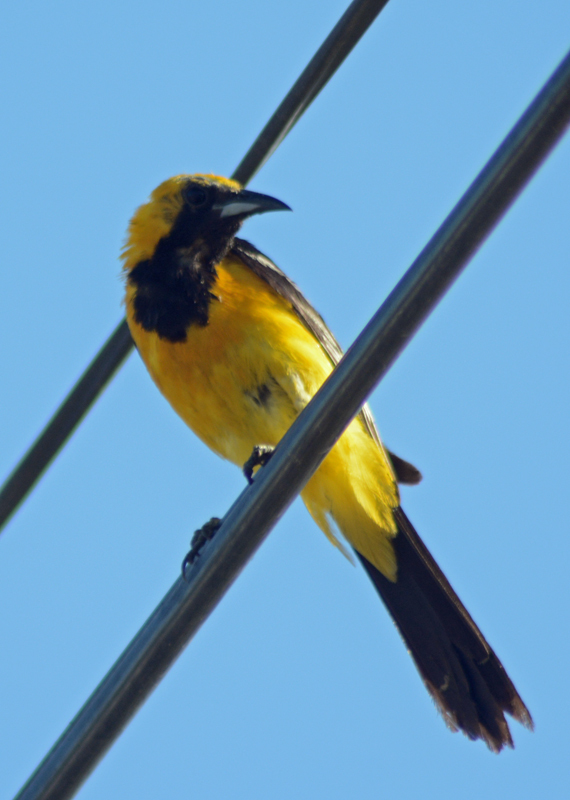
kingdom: Animalia
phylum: Chordata
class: Aves
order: Passeriformes
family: Icteridae
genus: Icterus
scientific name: Icterus cucullatus
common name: Hooded oriole
